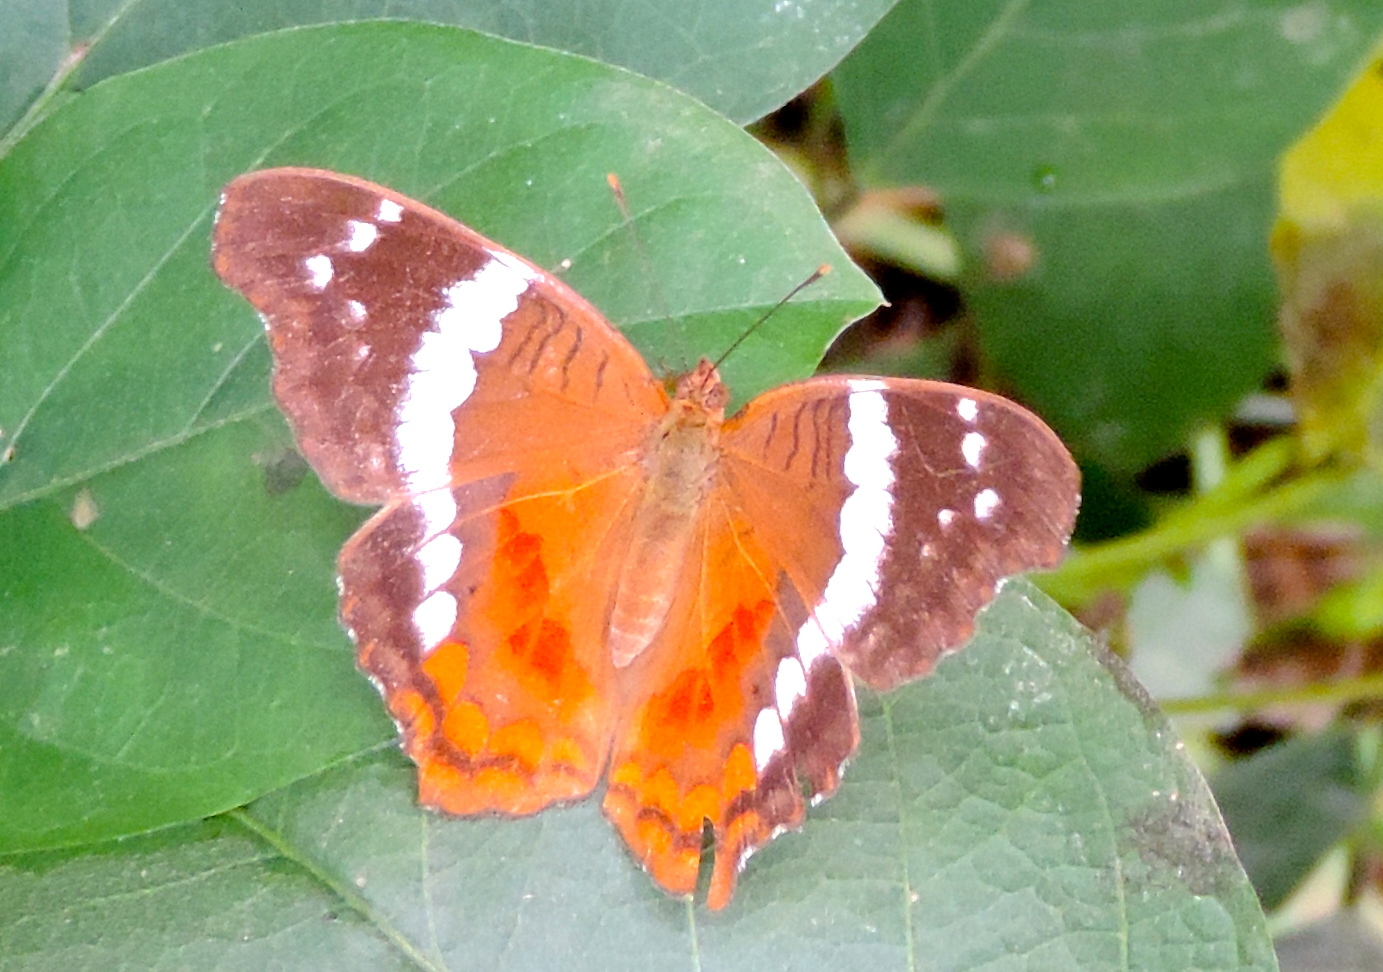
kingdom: Animalia
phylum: Arthropoda
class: Insecta
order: Lepidoptera
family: Nymphalidae
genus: Anartia
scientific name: Anartia fatima
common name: Banded peacock
